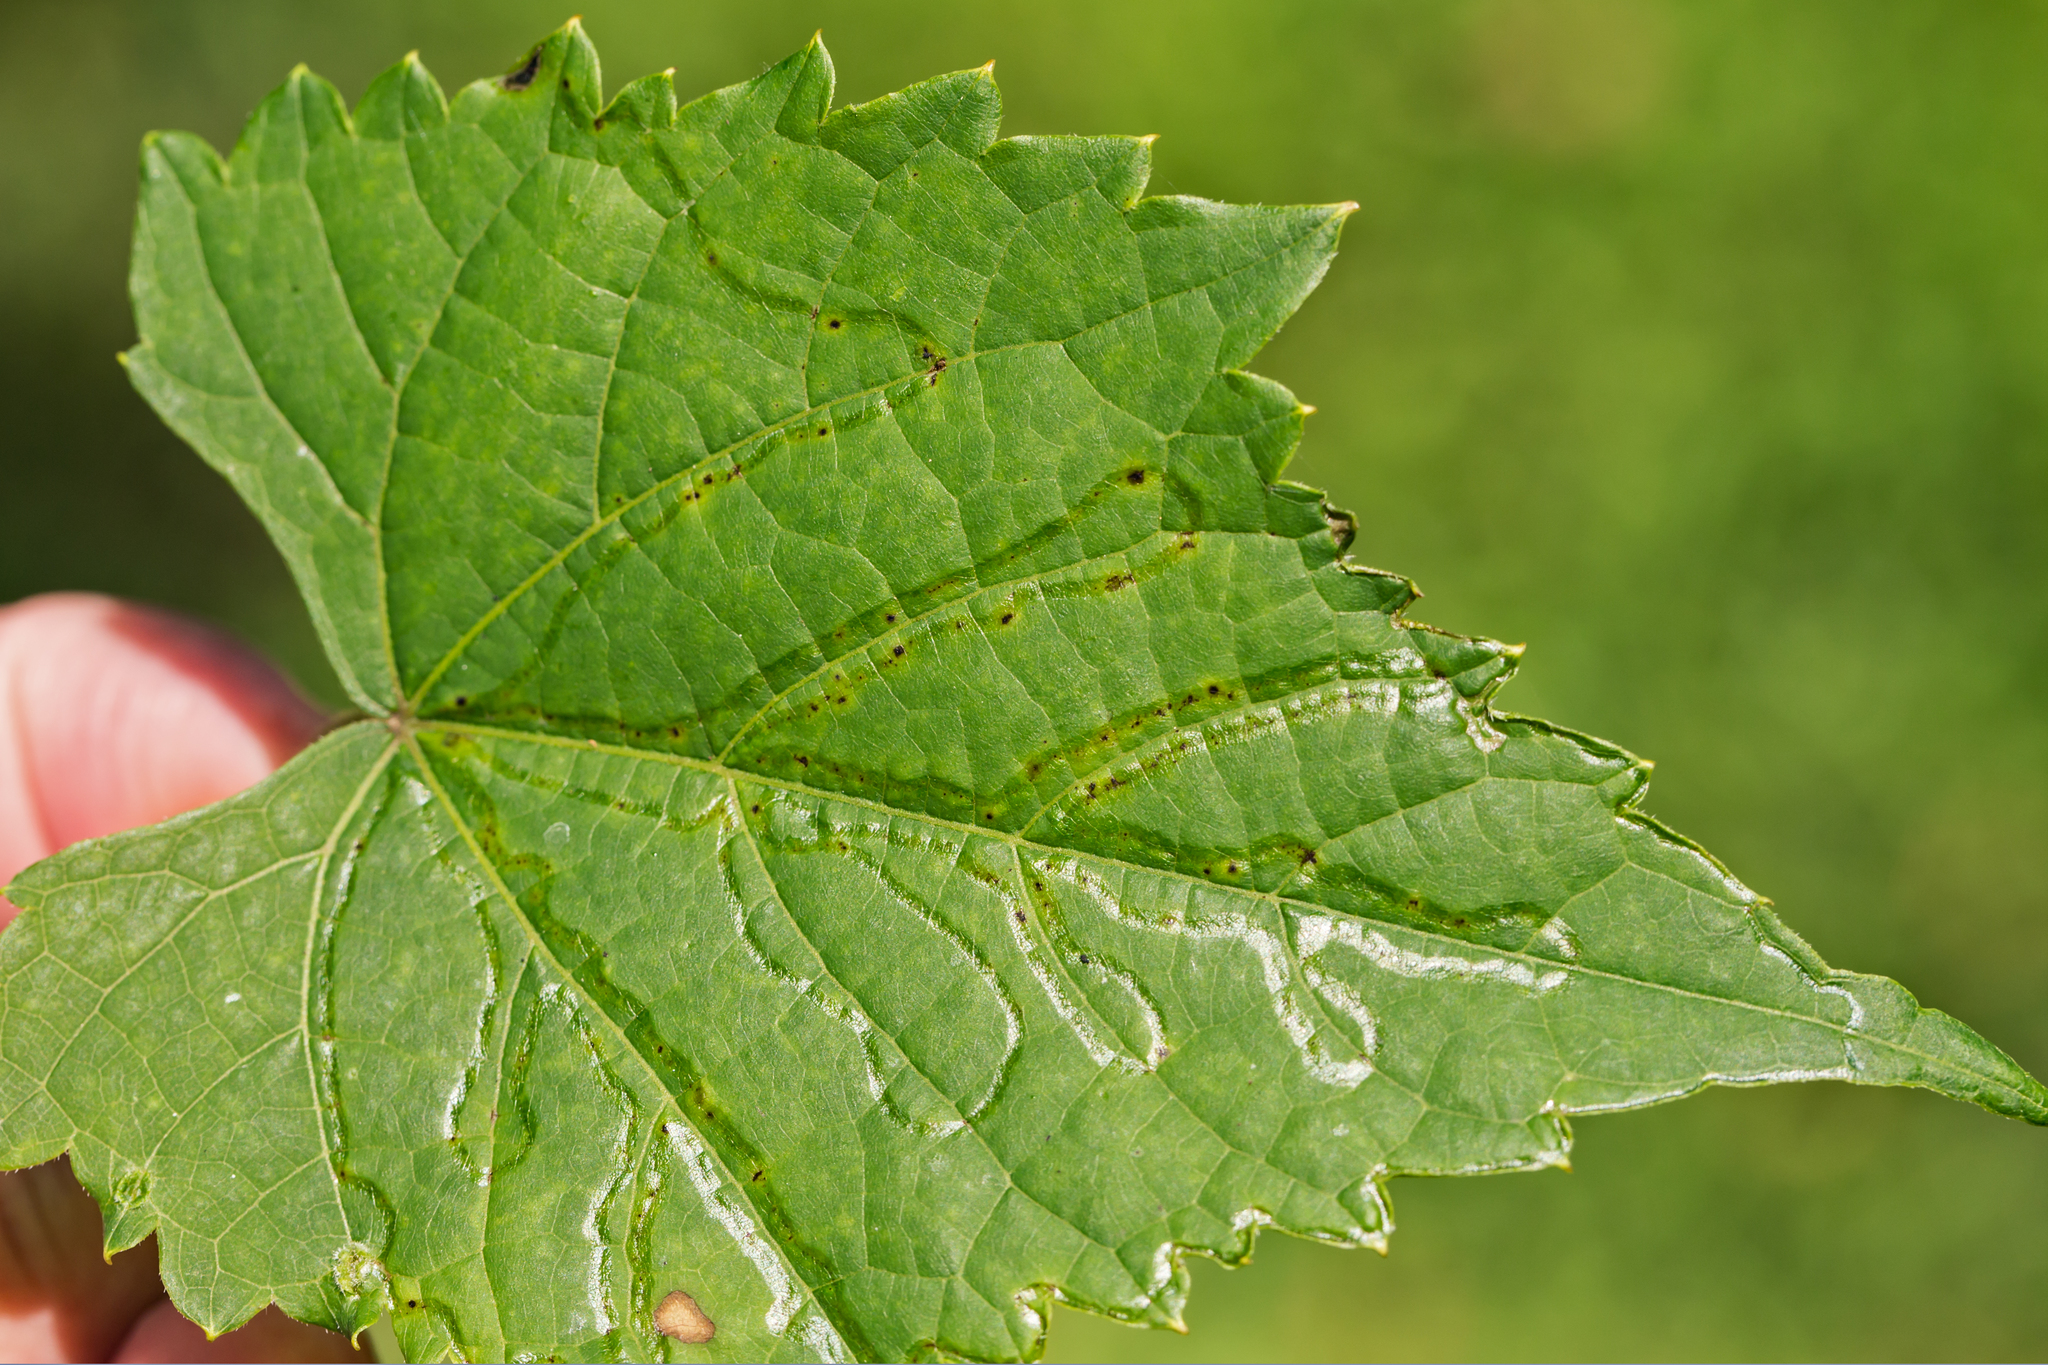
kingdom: Animalia
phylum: Arthropoda
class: Insecta
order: Lepidoptera
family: Gracillariidae
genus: Phyllocnistis
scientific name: Phyllocnistis vitegenella
